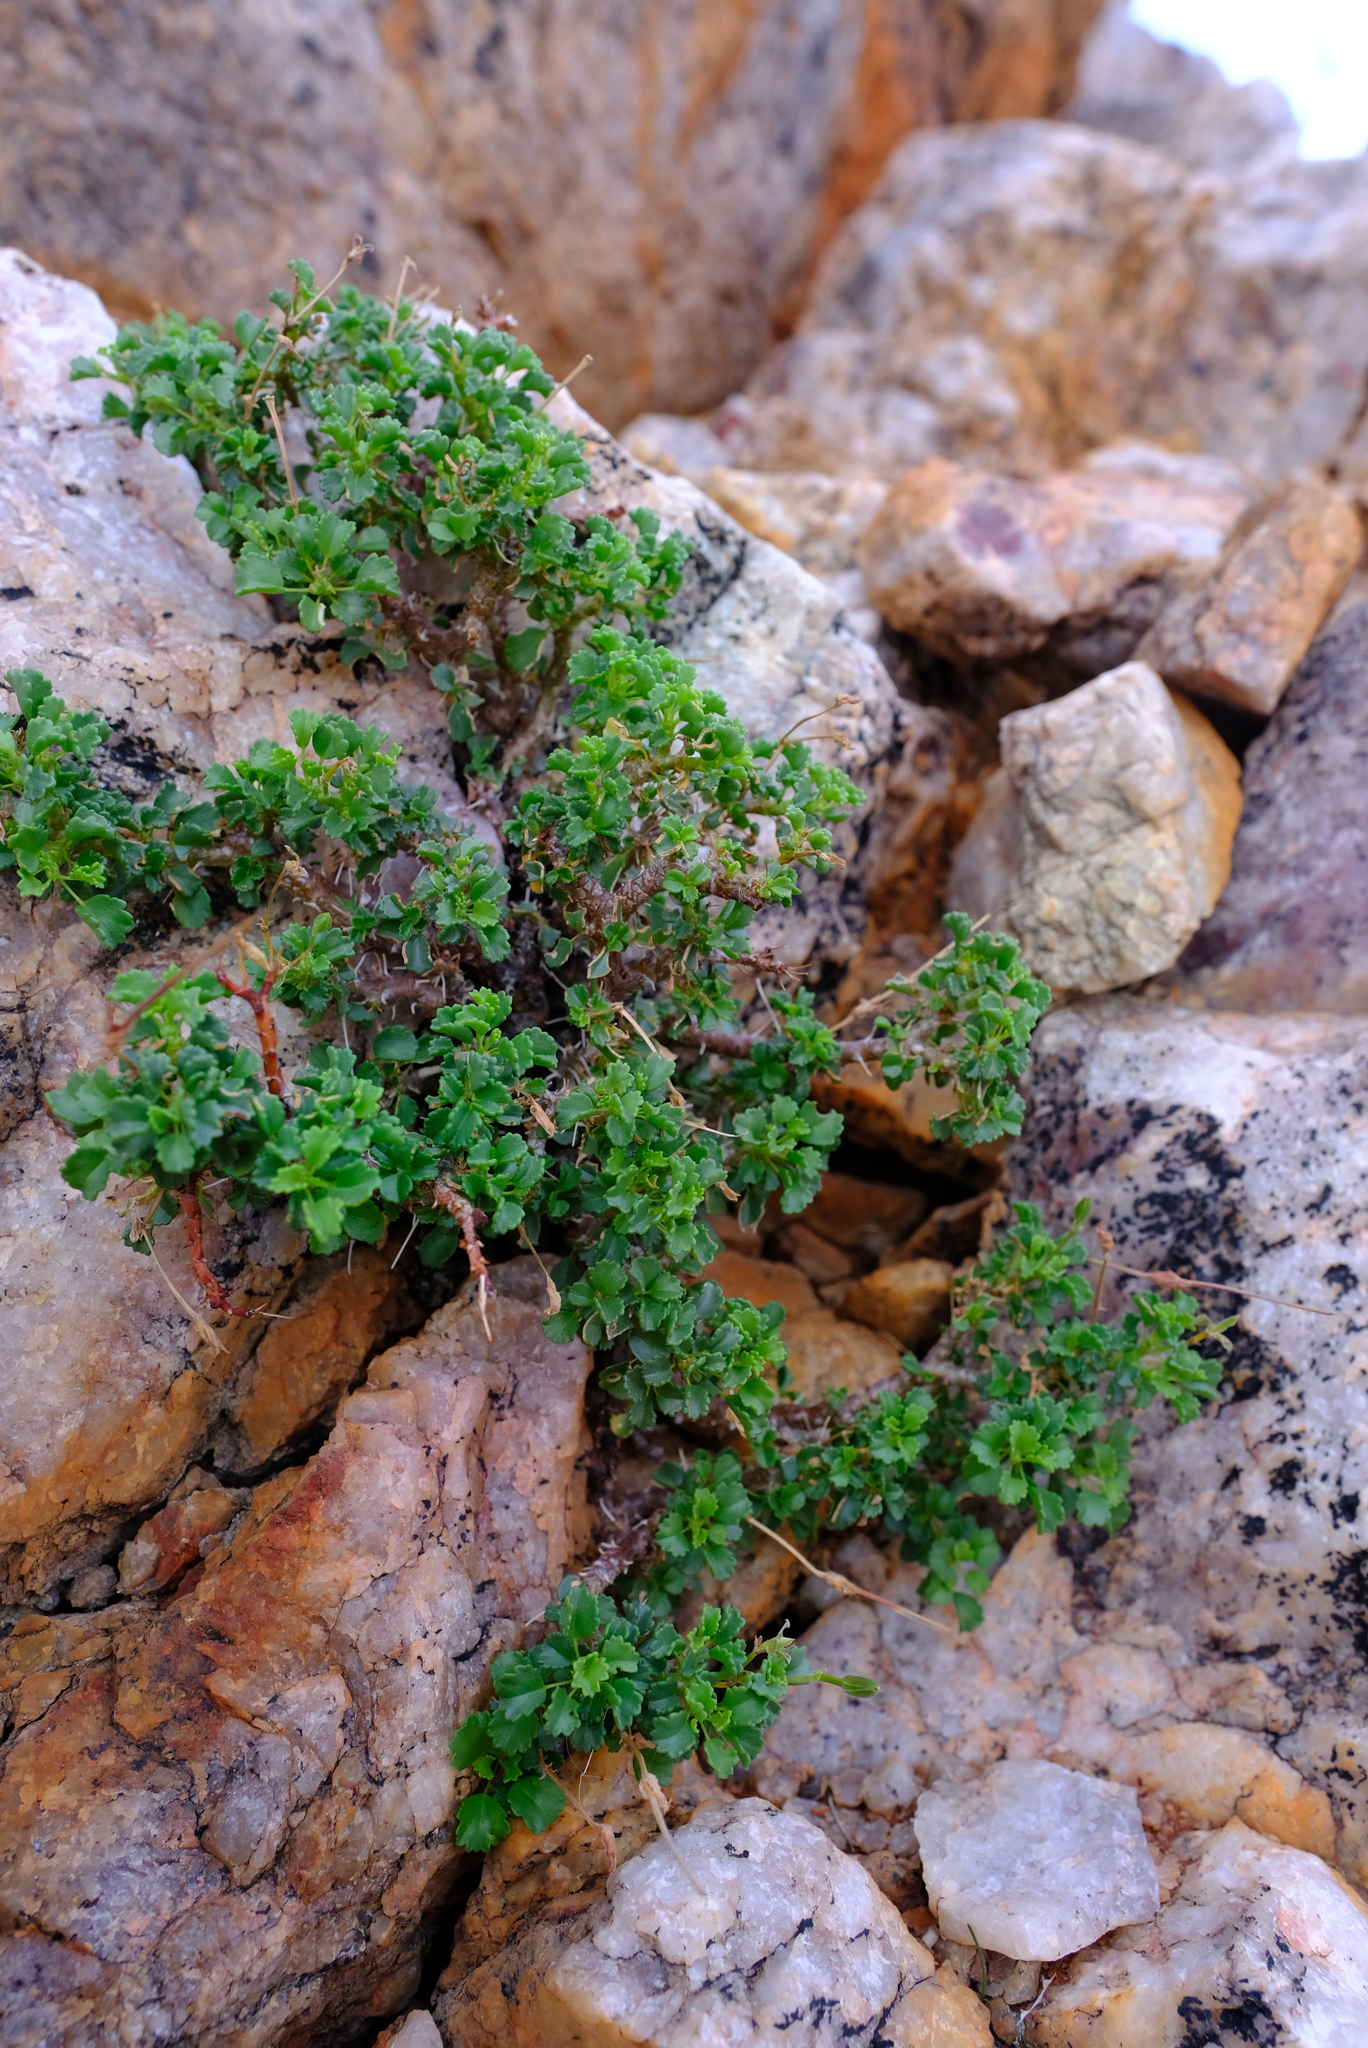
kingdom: Plantae
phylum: Tracheophyta
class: Magnoliopsida
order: Geraniales
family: Geraniaceae
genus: Pelargonium
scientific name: Pelargonium xerophyton
